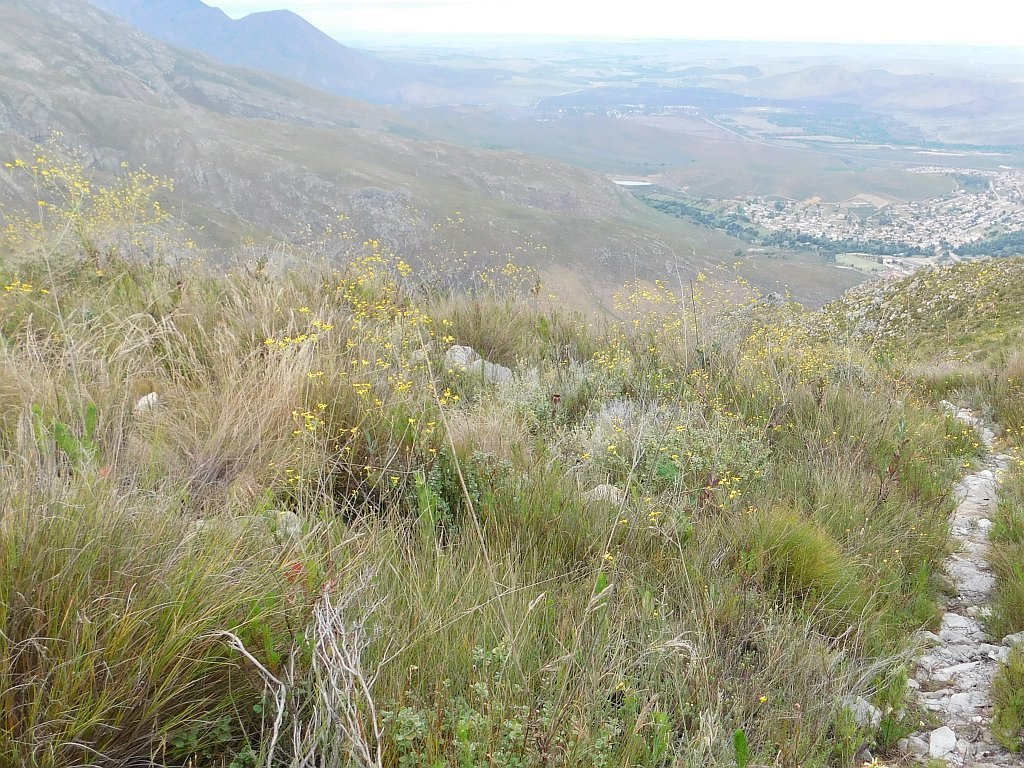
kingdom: Plantae
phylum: Tracheophyta
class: Magnoliopsida
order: Asterales
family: Asteraceae
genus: Othonna
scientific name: Othonna quinquedentata
